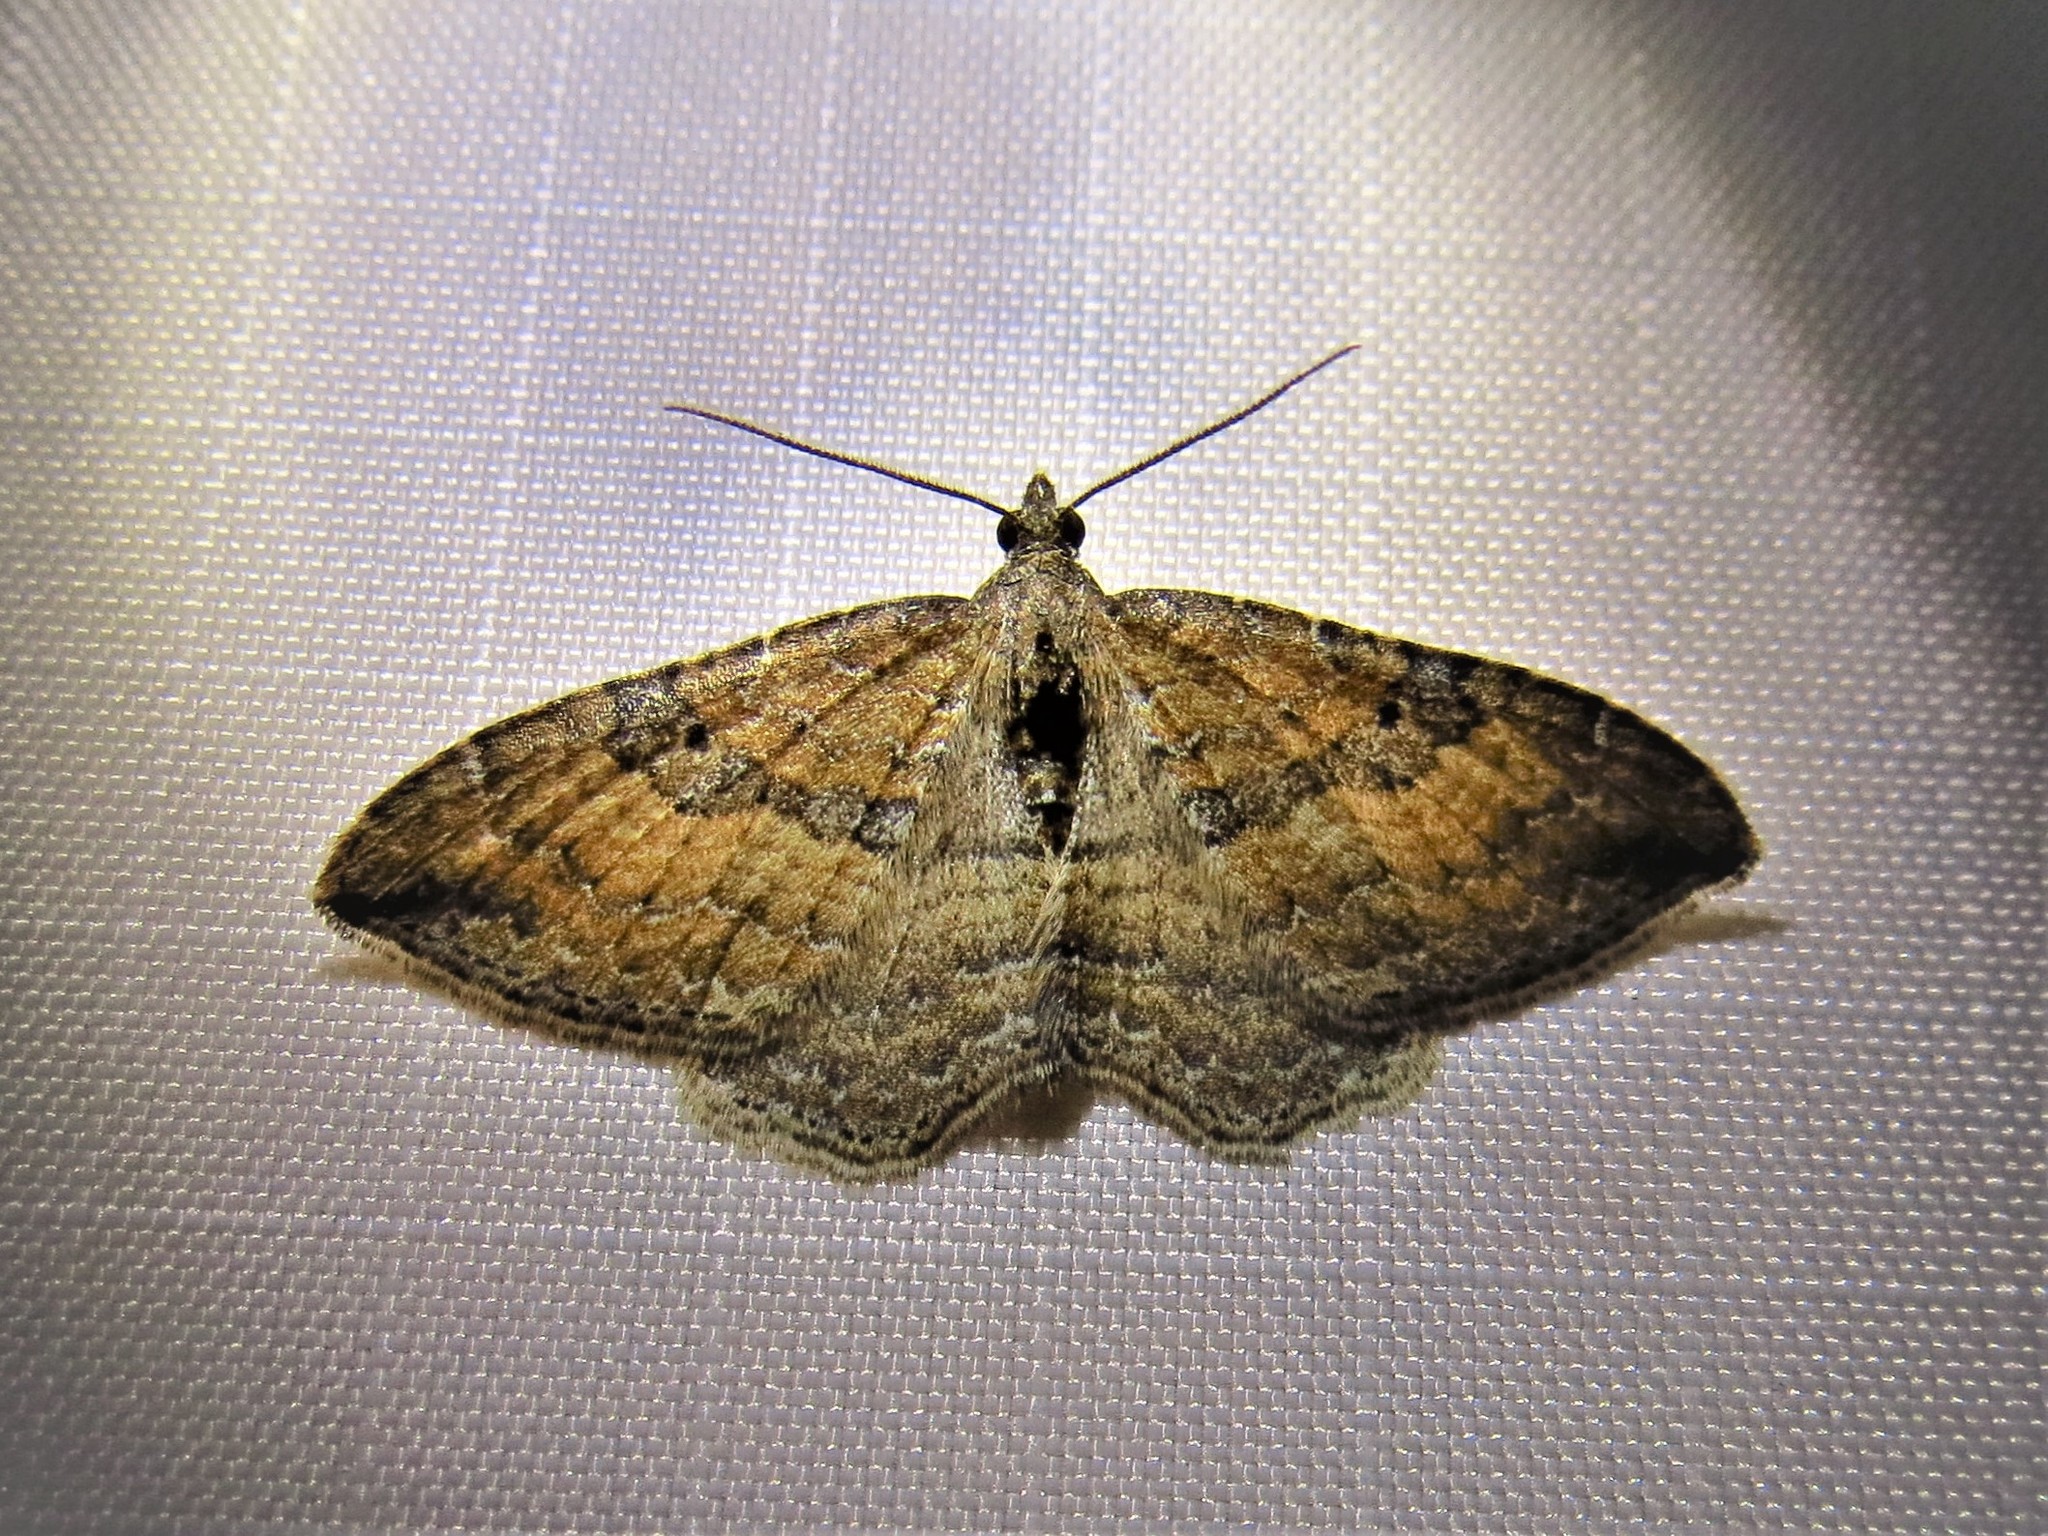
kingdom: Animalia
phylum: Arthropoda
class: Insecta
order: Lepidoptera
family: Geometridae
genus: Orthonama
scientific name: Orthonama obstipata
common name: The gem
